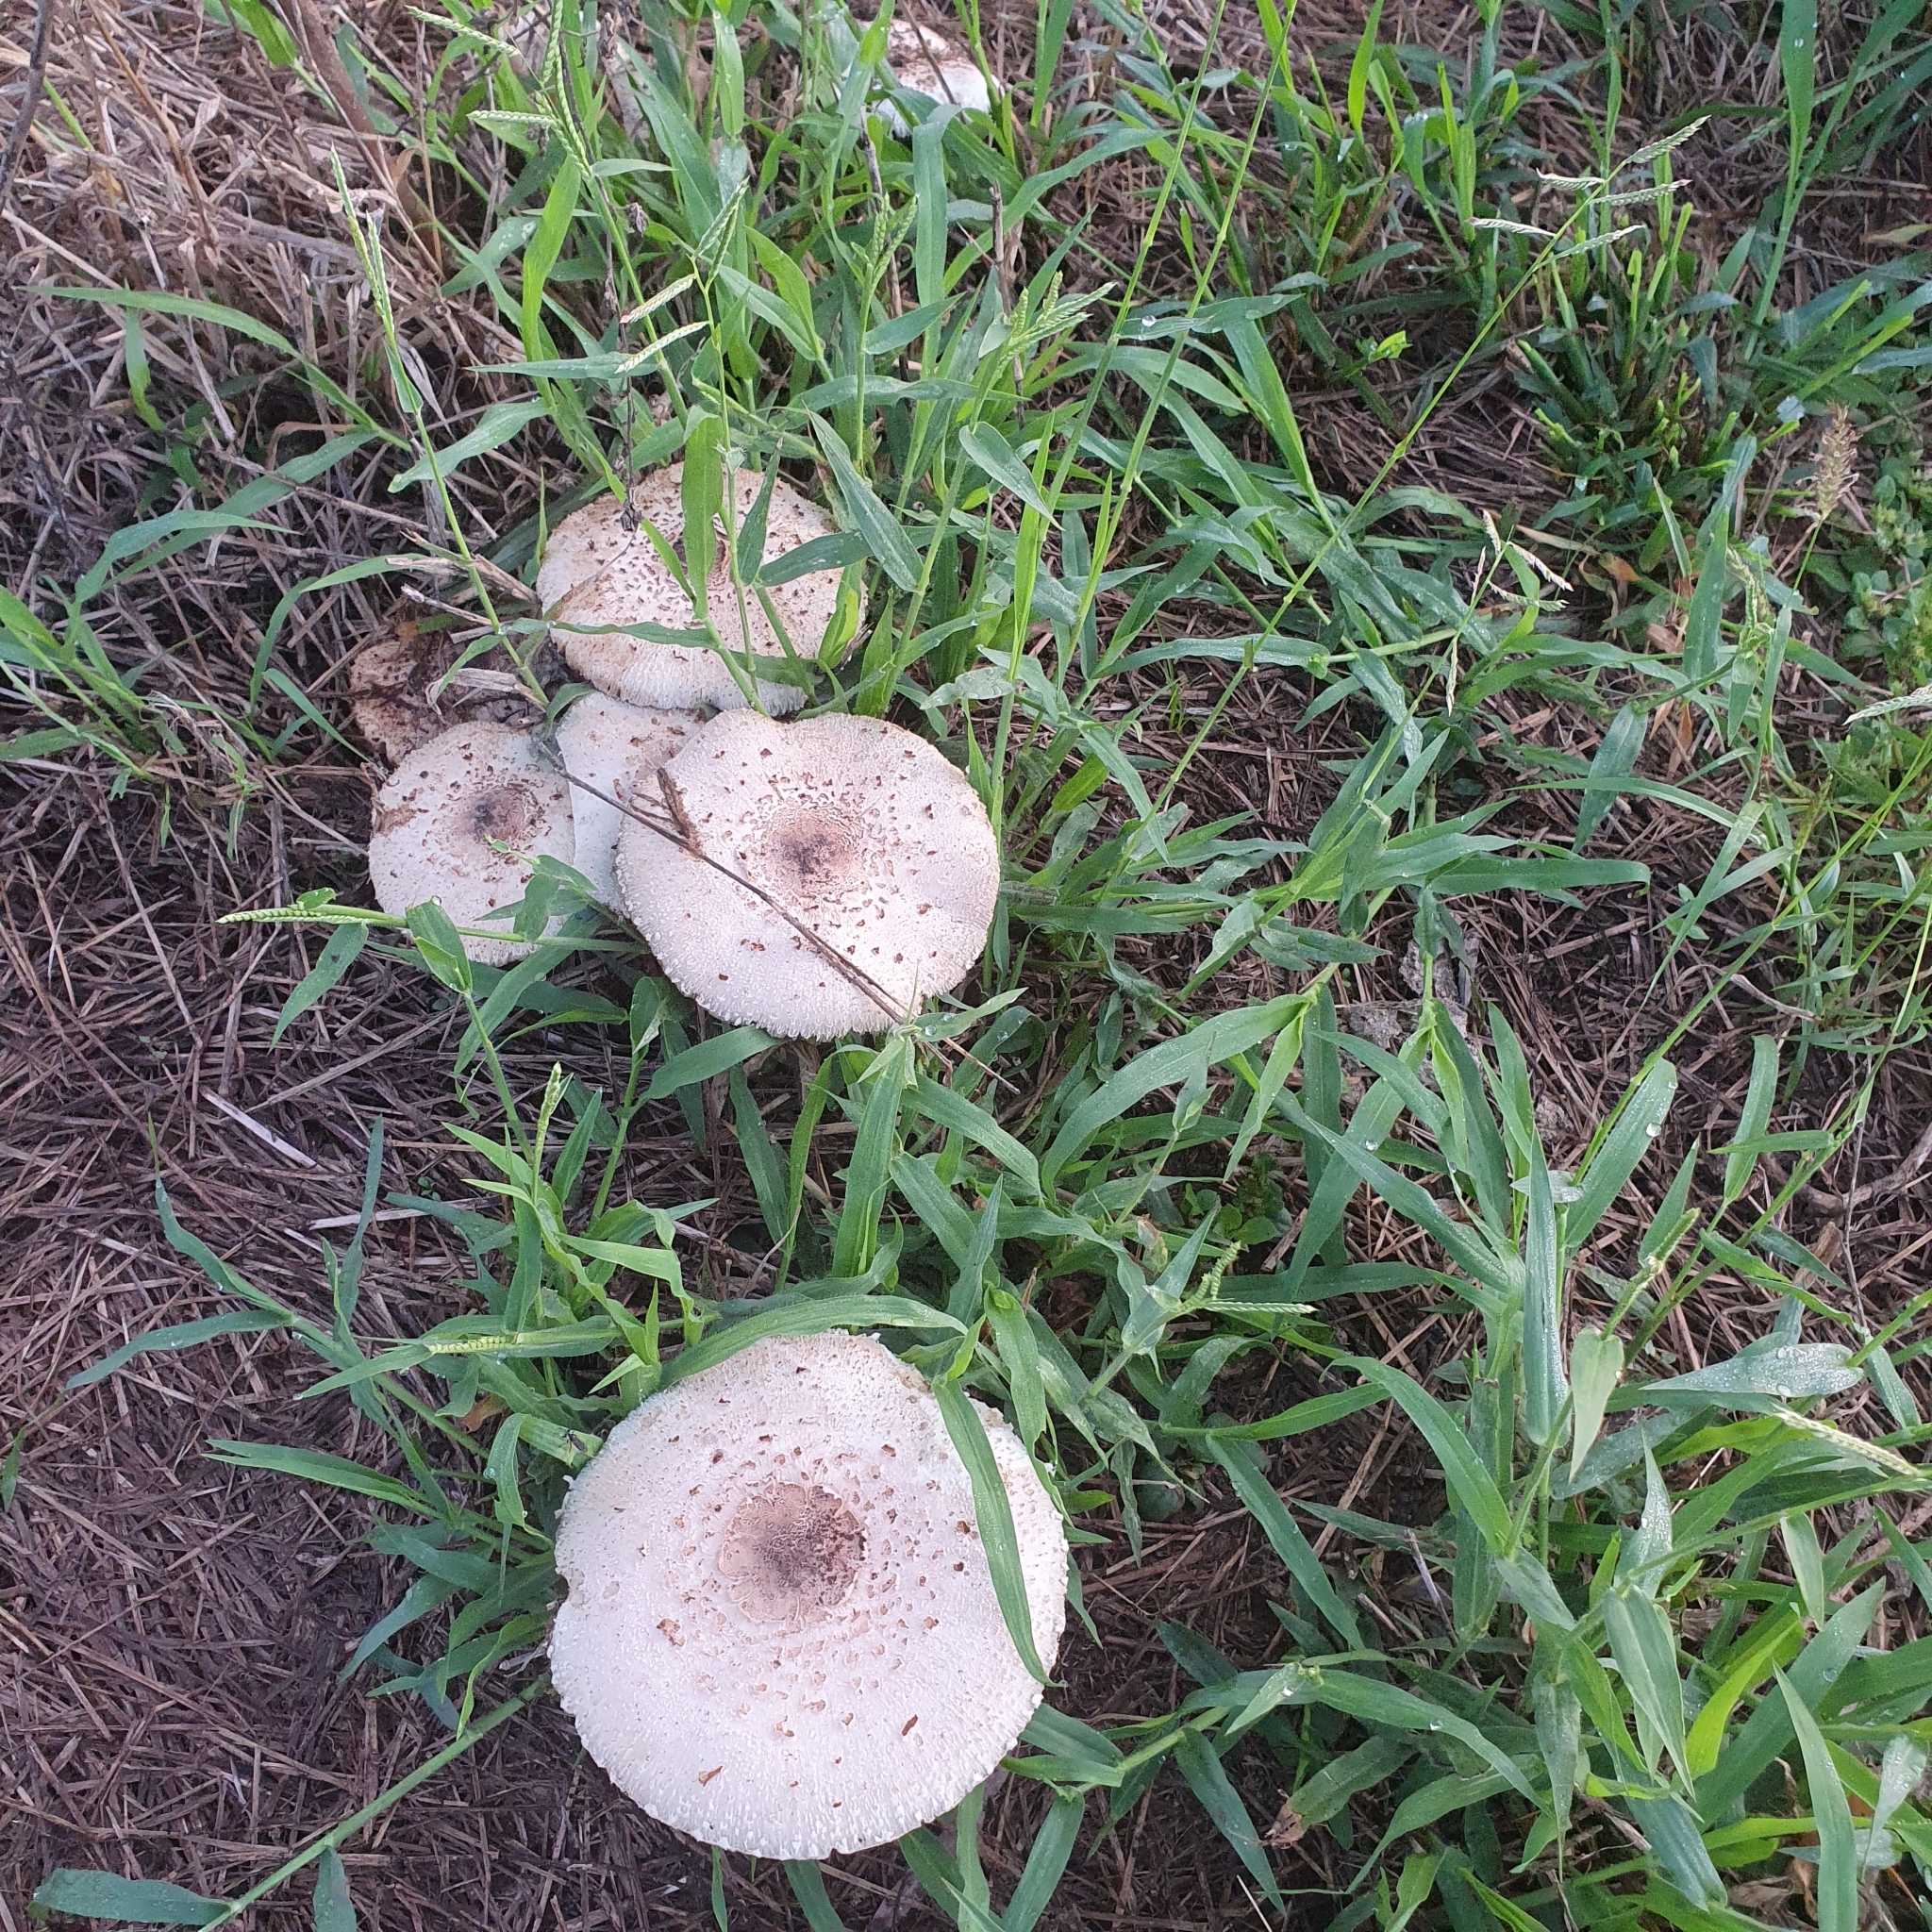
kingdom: Fungi
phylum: Basidiomycota
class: Agaricomycetes
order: Agaricales
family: Agaricaceae
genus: Chlorophyllum
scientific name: Chlorophyllum molybdites
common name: False parasol
